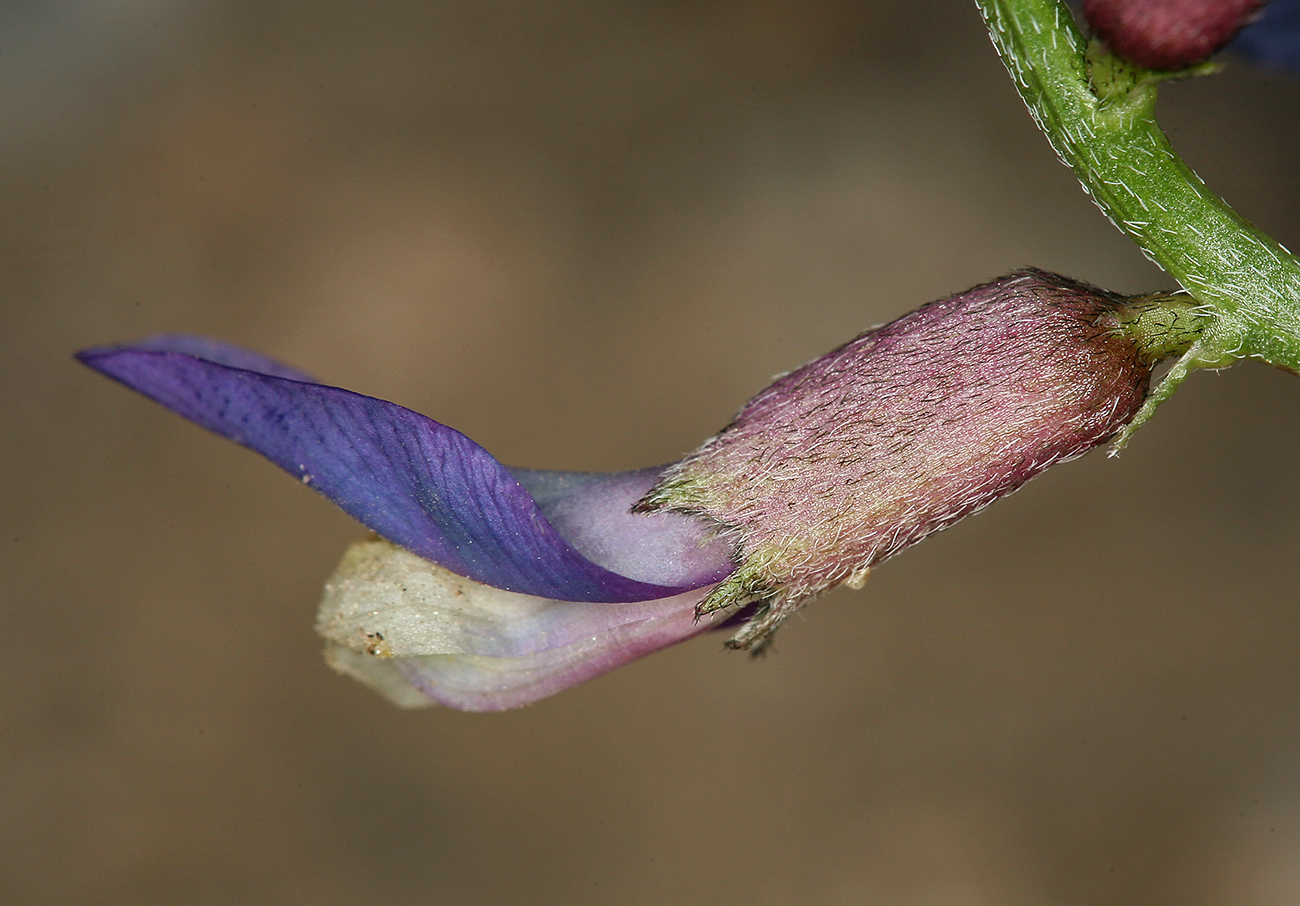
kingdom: Plantae
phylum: Tracheophyta
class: Magnoliopsida
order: Fabales
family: Fabaceae
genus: Astragalus
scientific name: Astragalus casei
